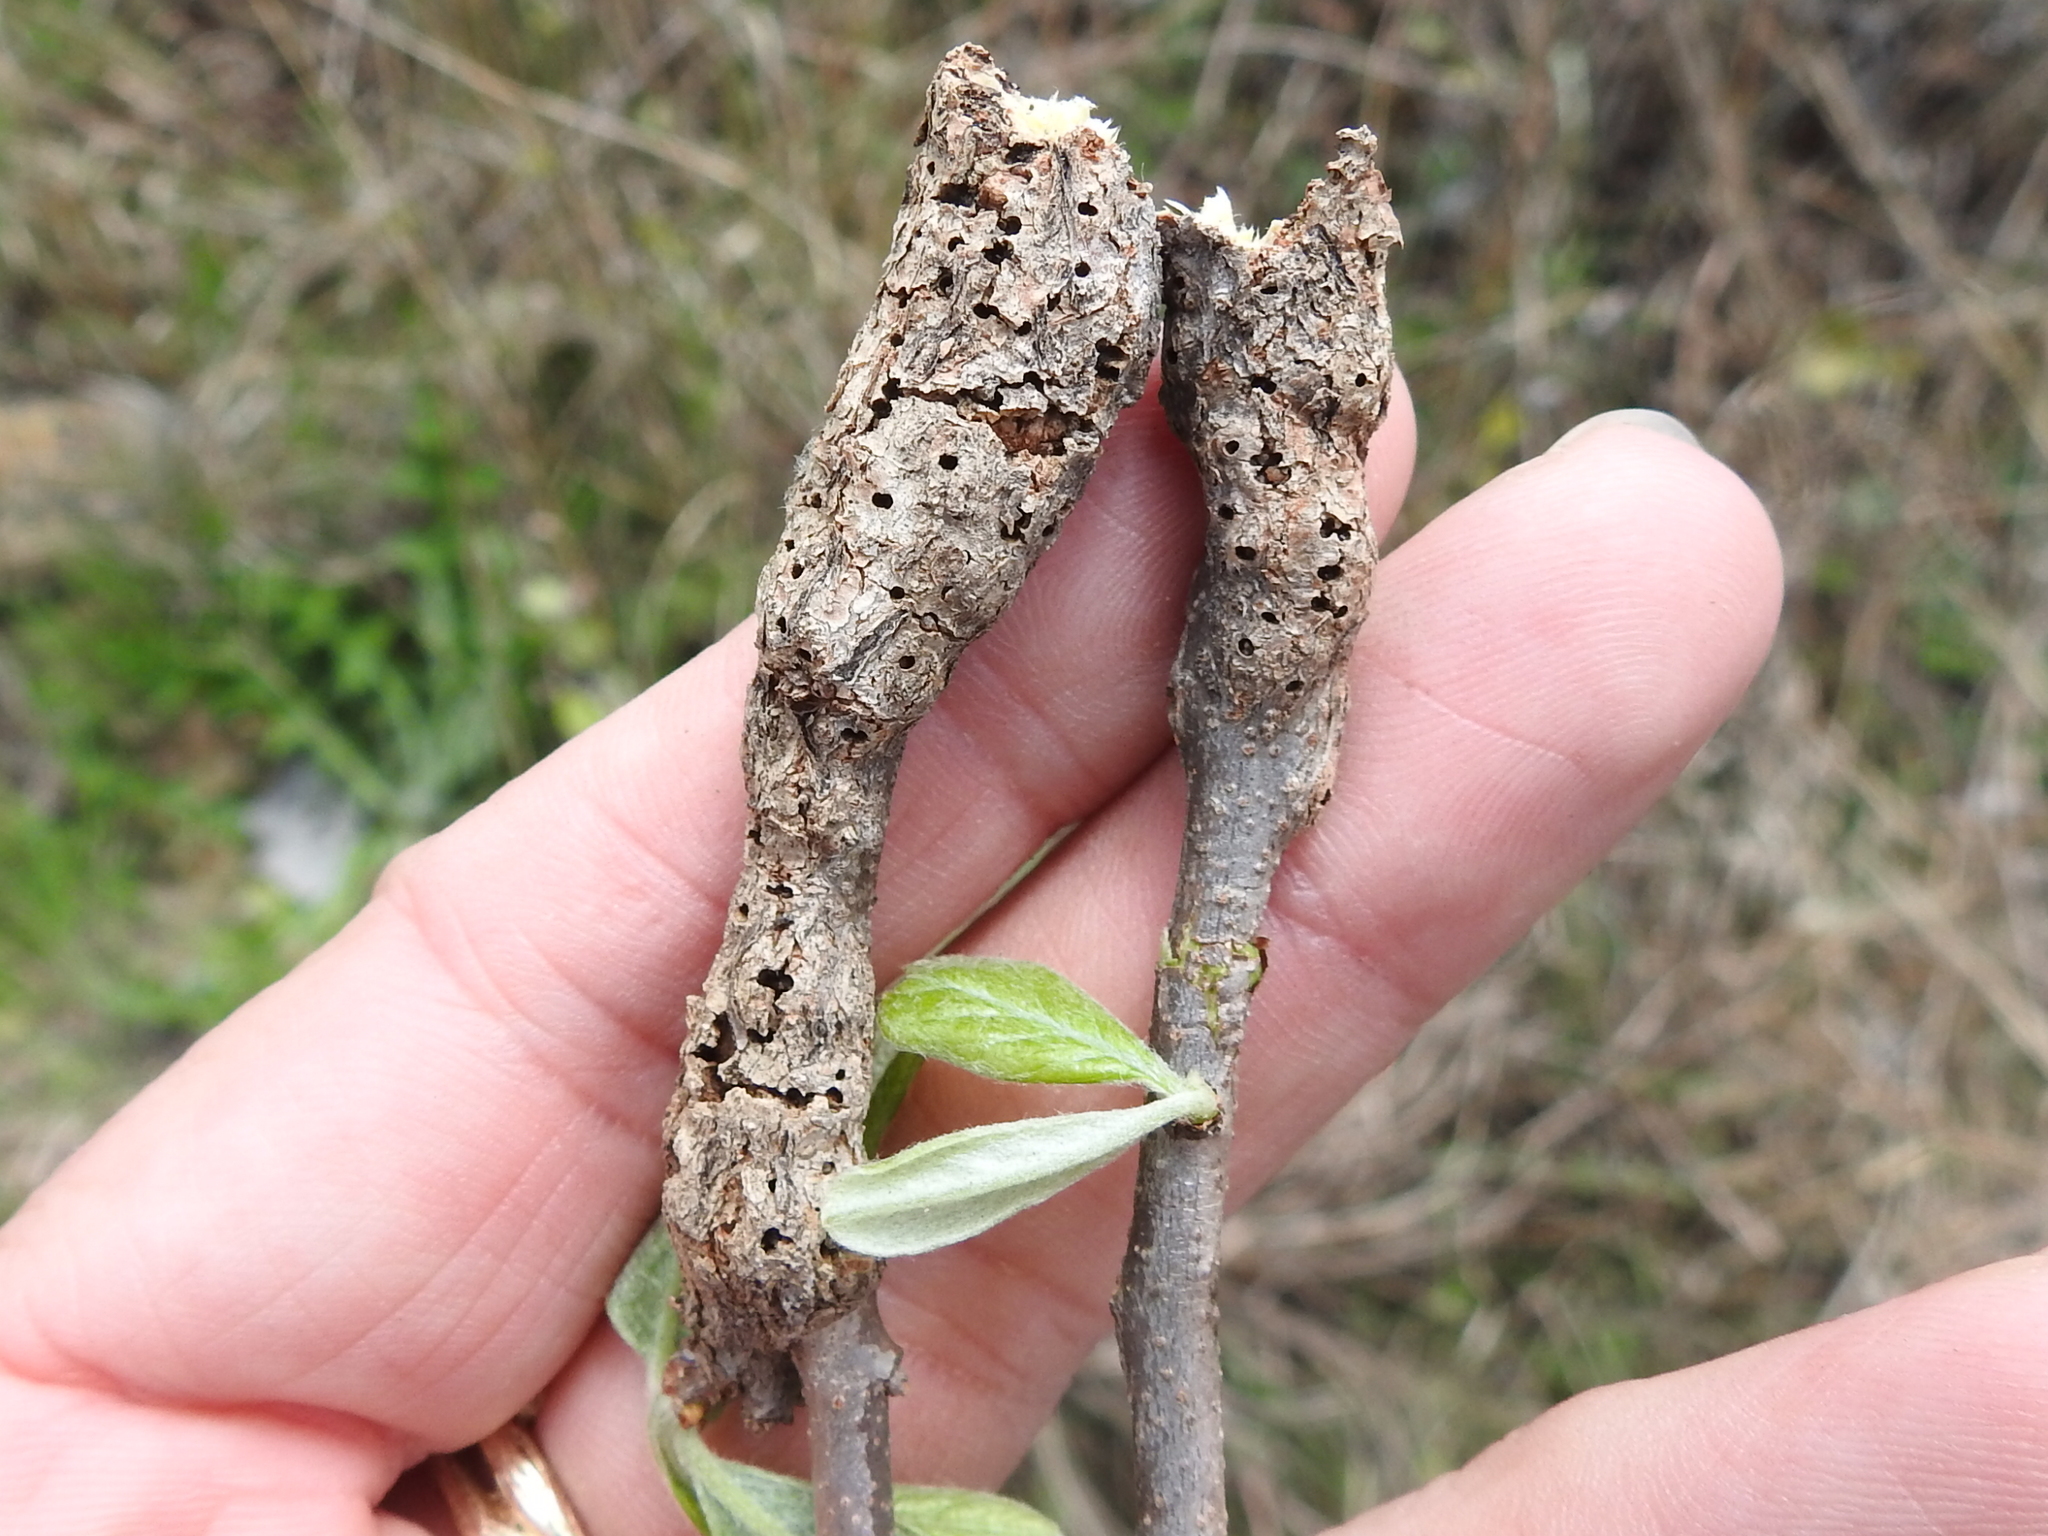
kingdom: Animalia
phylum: Arthropoda
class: Insecta
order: Diptera
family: Cecidomyiidae
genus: Bruggmanniella
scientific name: Bruggmanniella bumeliae
